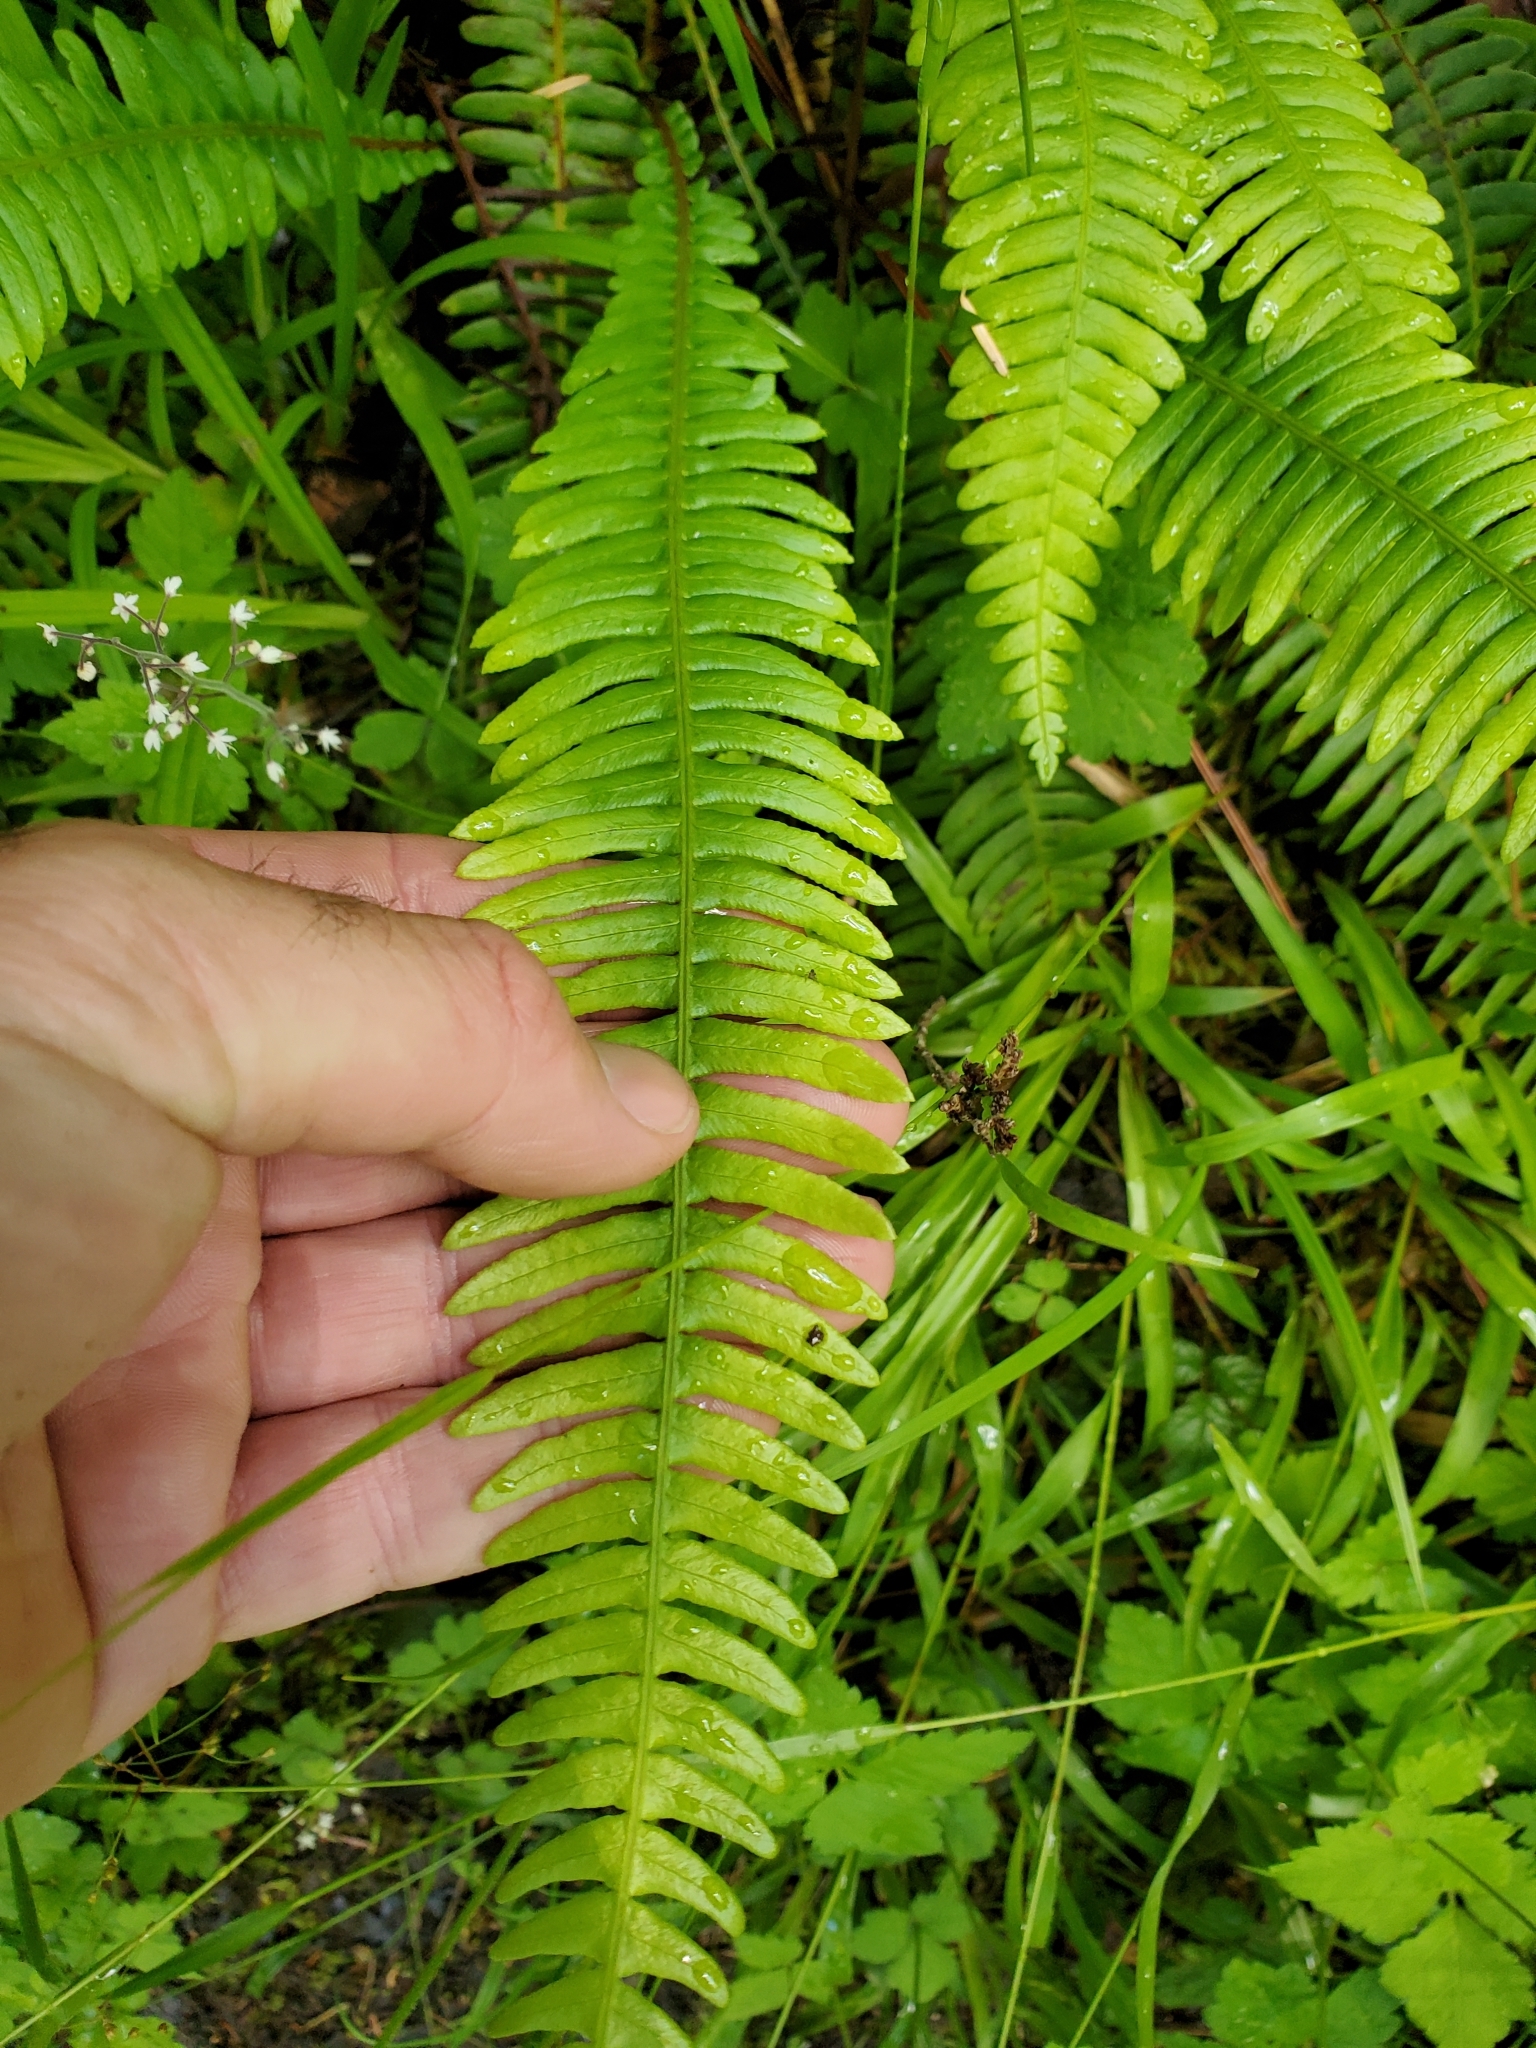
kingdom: Plantae
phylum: Tracheophyta
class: Polypodiopsida
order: Polypodiales
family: Blechnaceae
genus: Struthiopteris
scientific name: Struthiopteris spicant
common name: Deer fern
